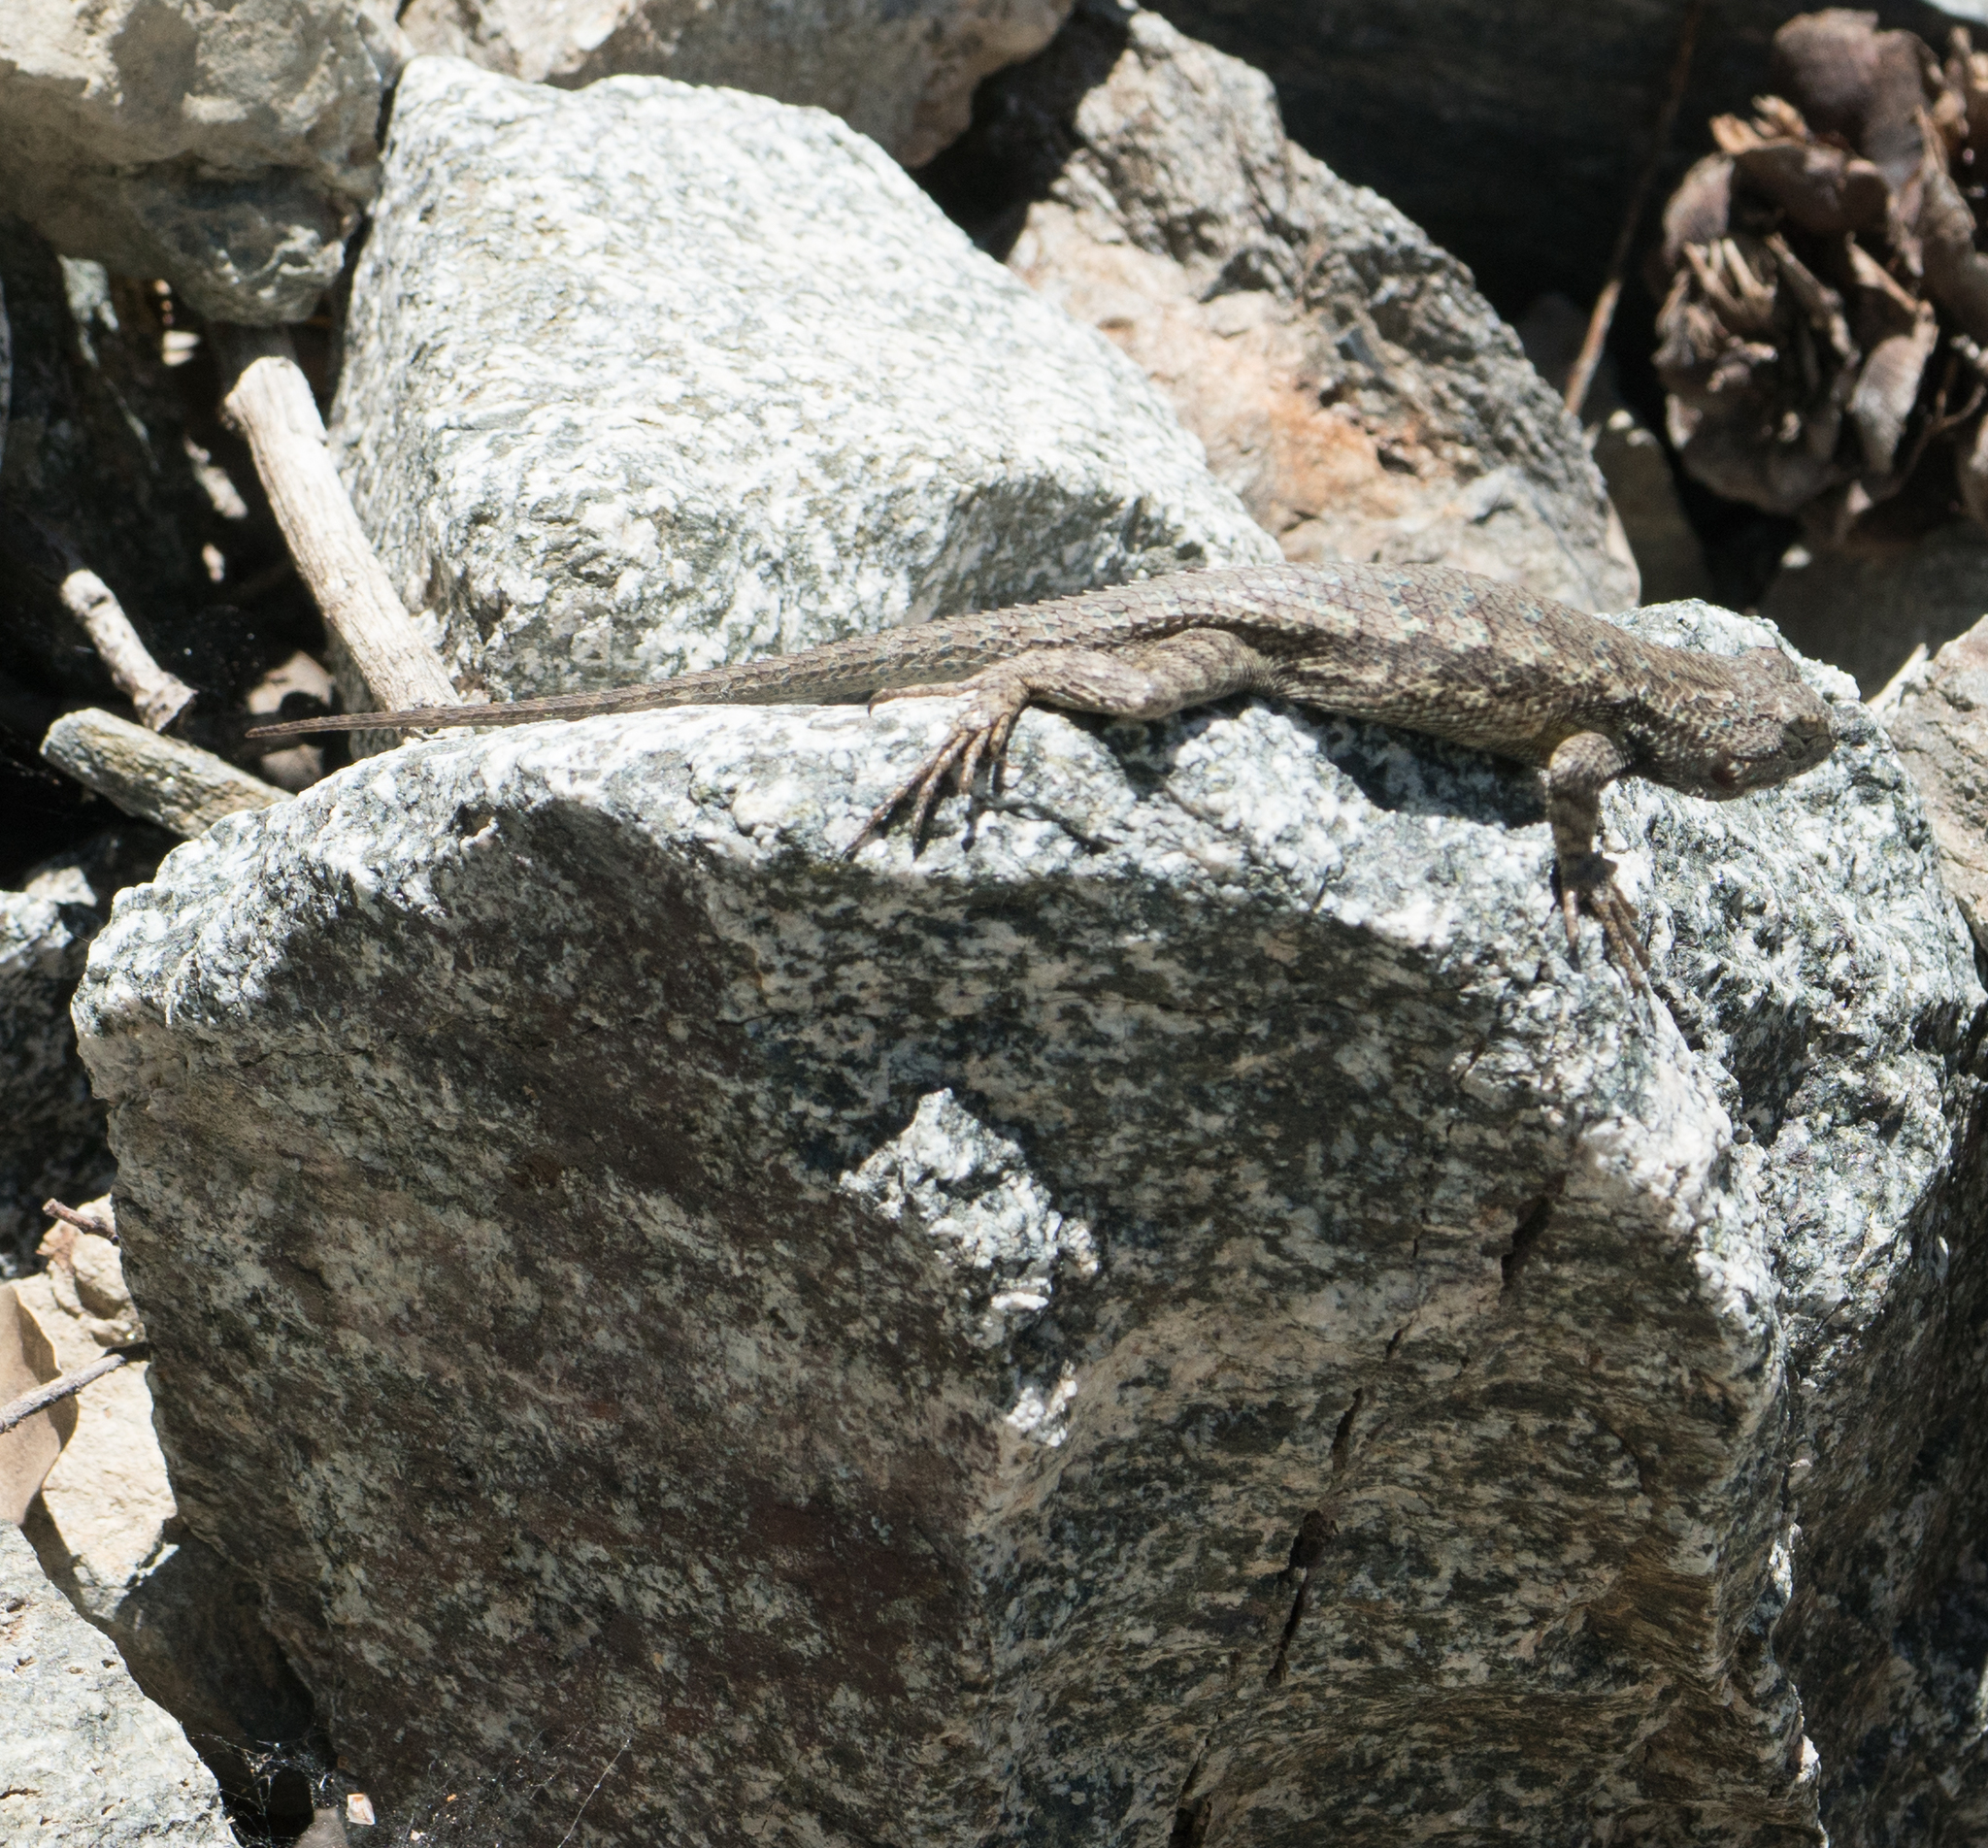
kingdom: Animalia
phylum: Chordata
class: Squamata
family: Phrynosomatidae
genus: Sceloporus
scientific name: Sceloporus occidentalis
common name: Western fence lizard
